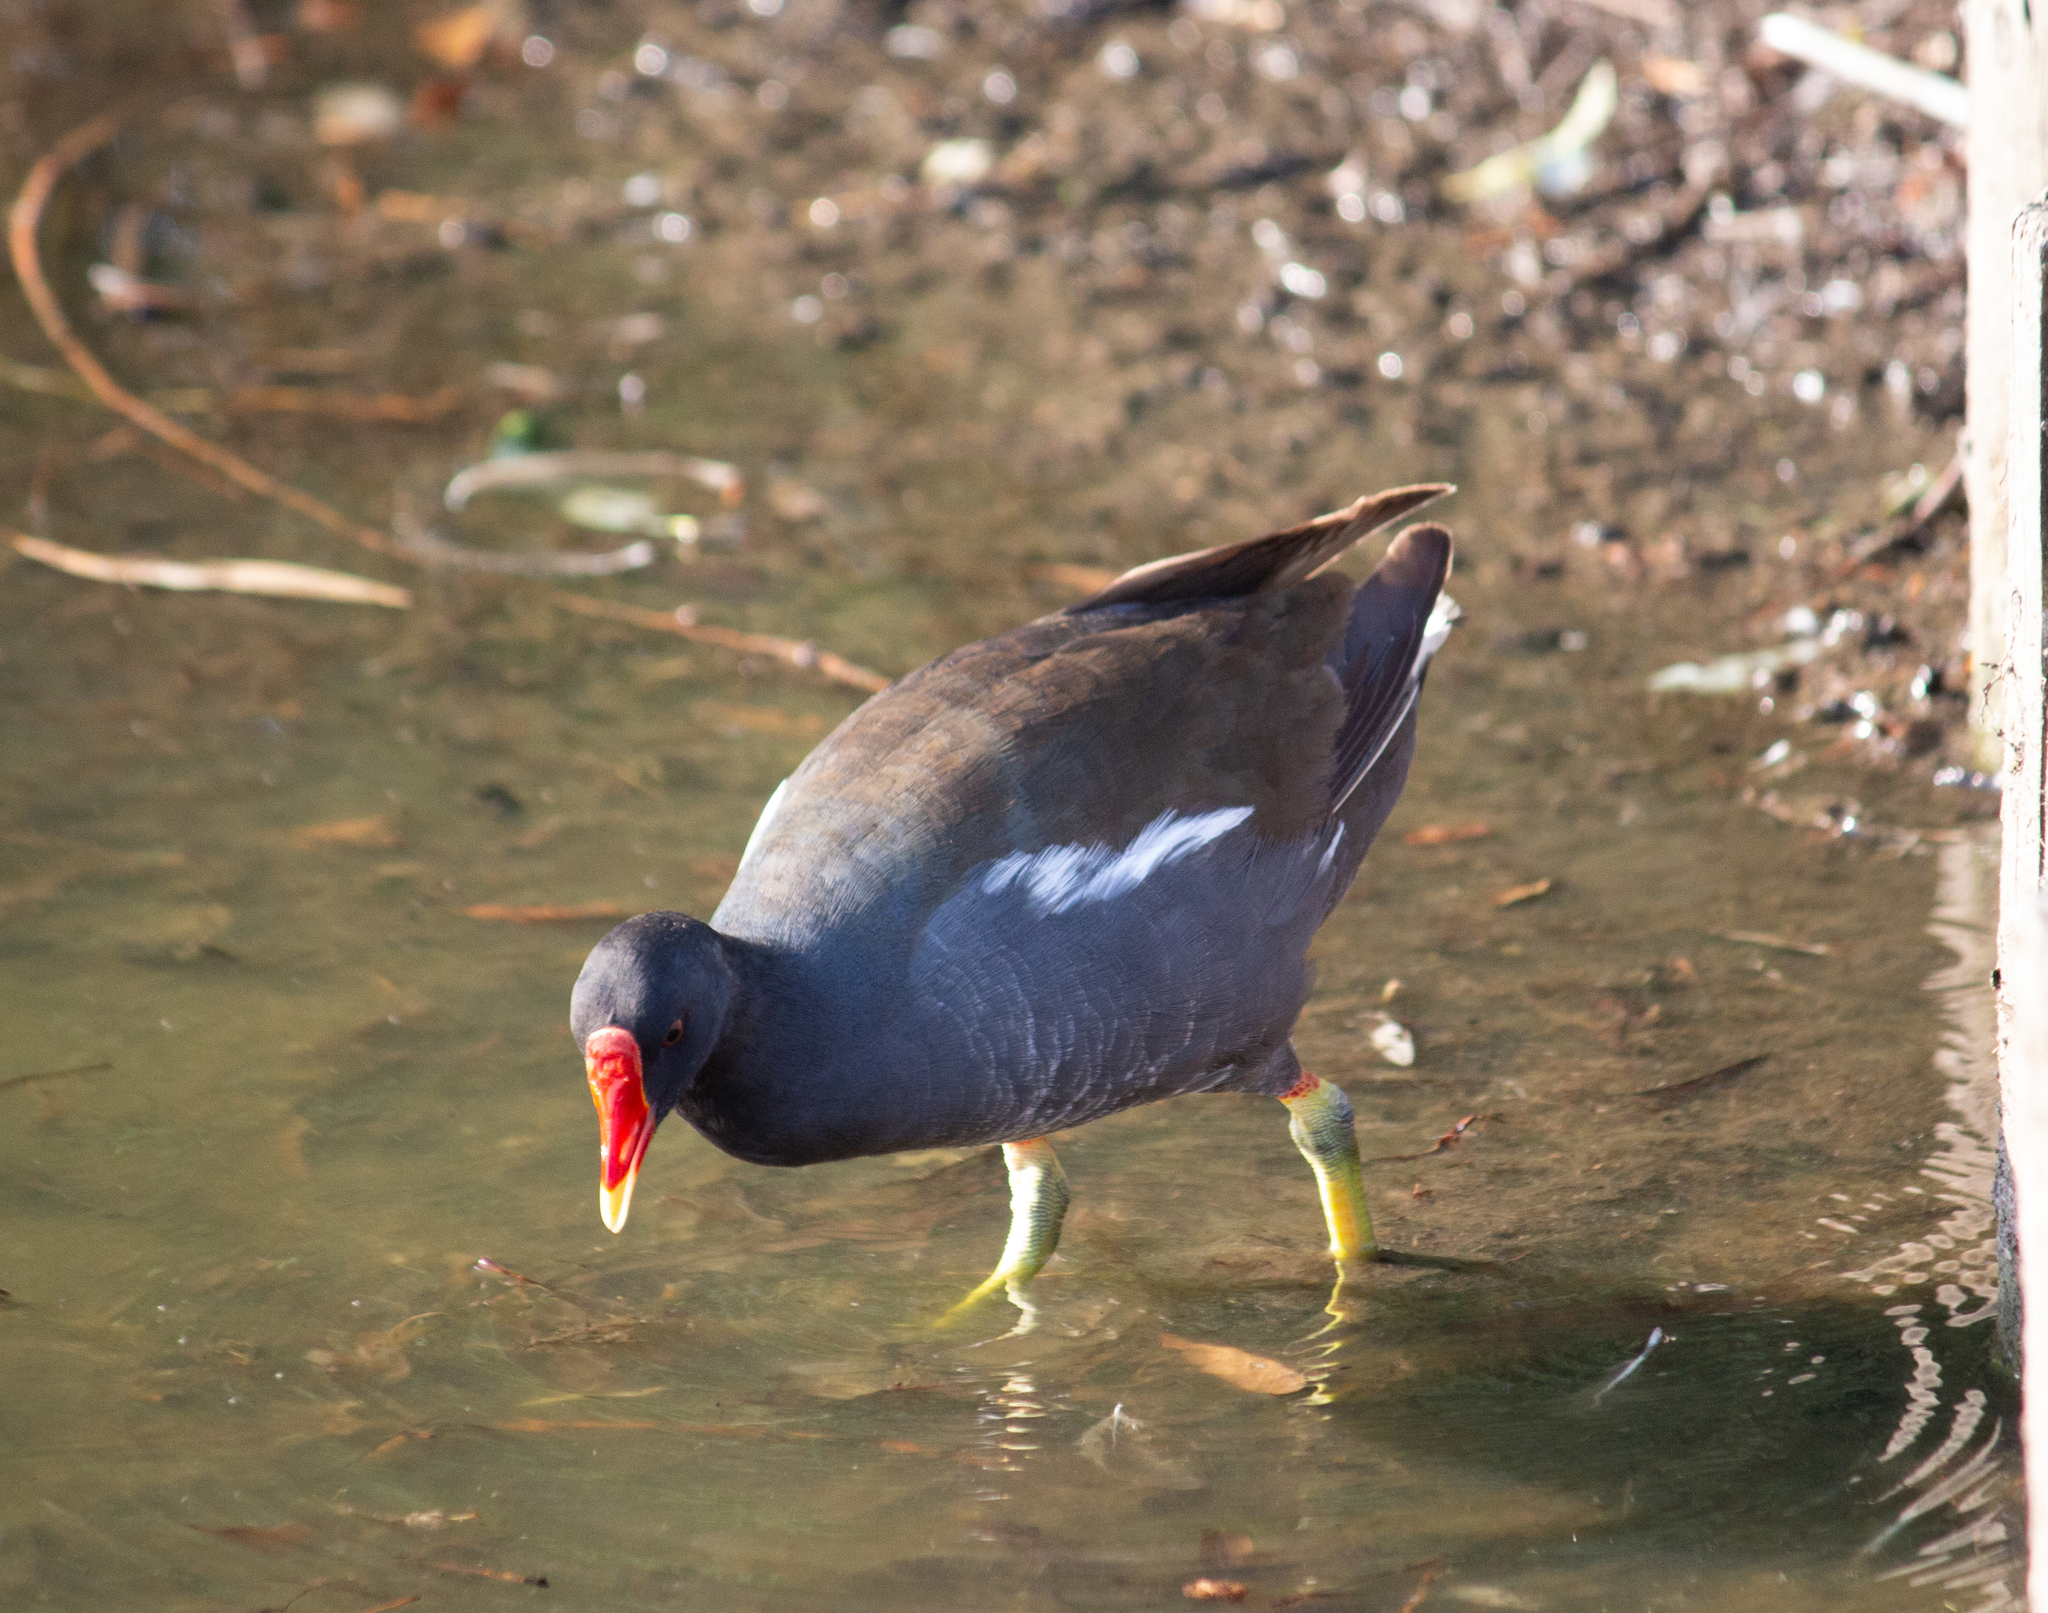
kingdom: Animalia
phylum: Chordata
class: Aves
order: Gruiformes
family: Rallidae
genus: Gallinula
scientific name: Gallinula chloropus
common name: Common moorhen
